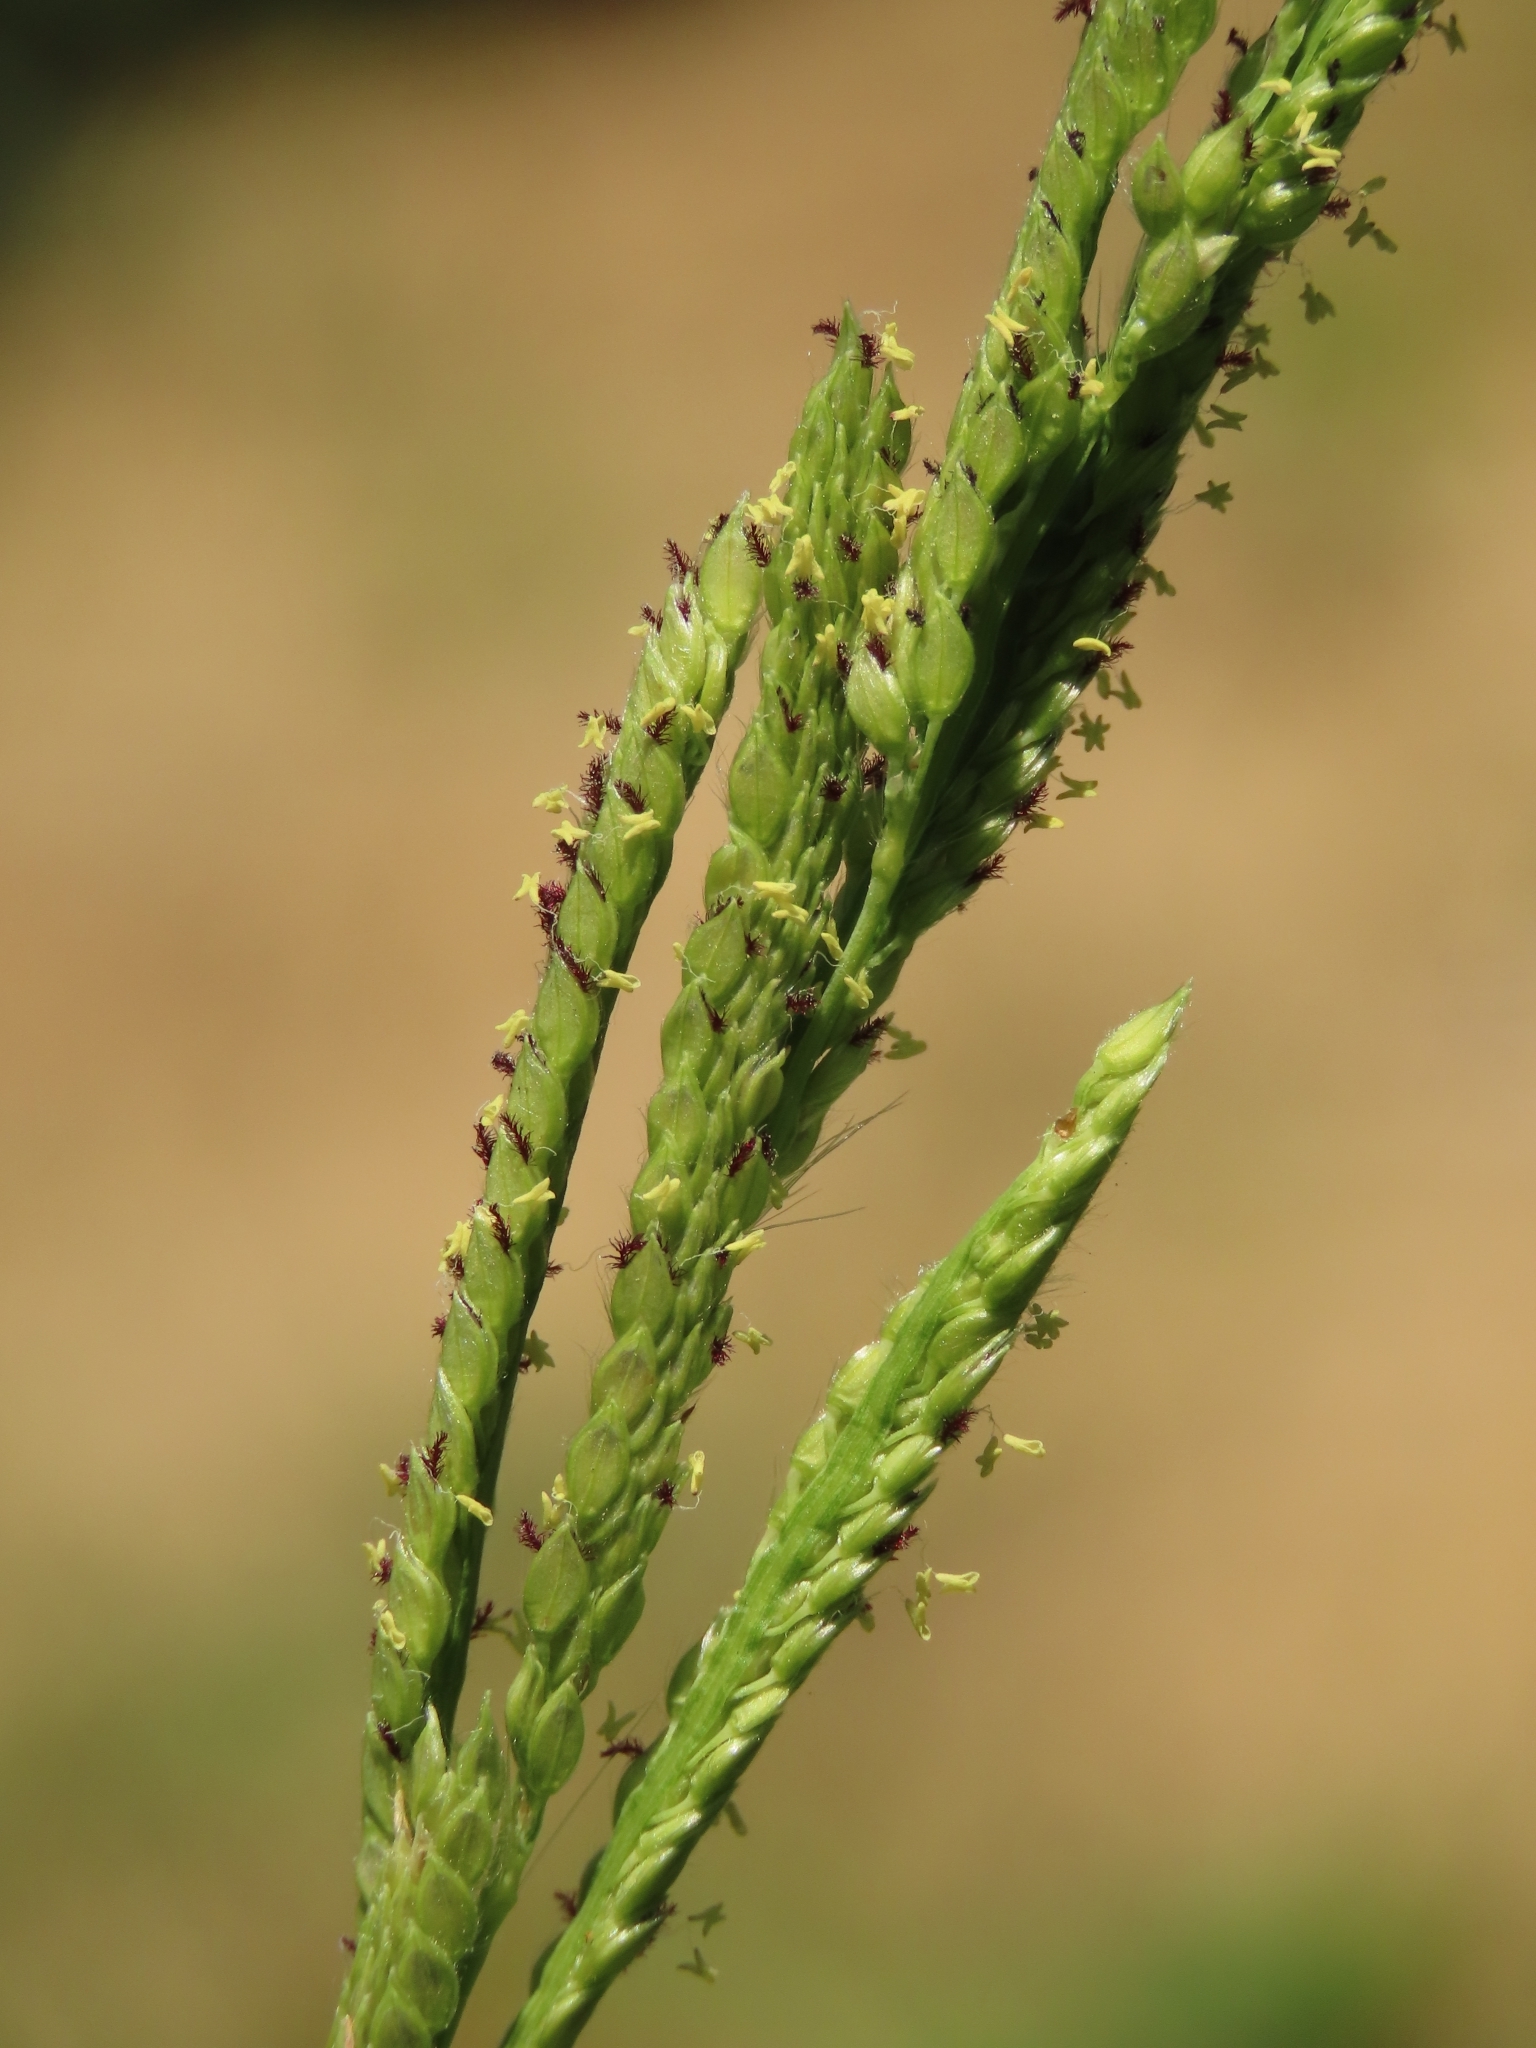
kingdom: Plantae
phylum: Tracheophyta
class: Liliopsida
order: Poales
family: Poaceae
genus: Paspalum
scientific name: Paspalum urvillei
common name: Vasey's grass
